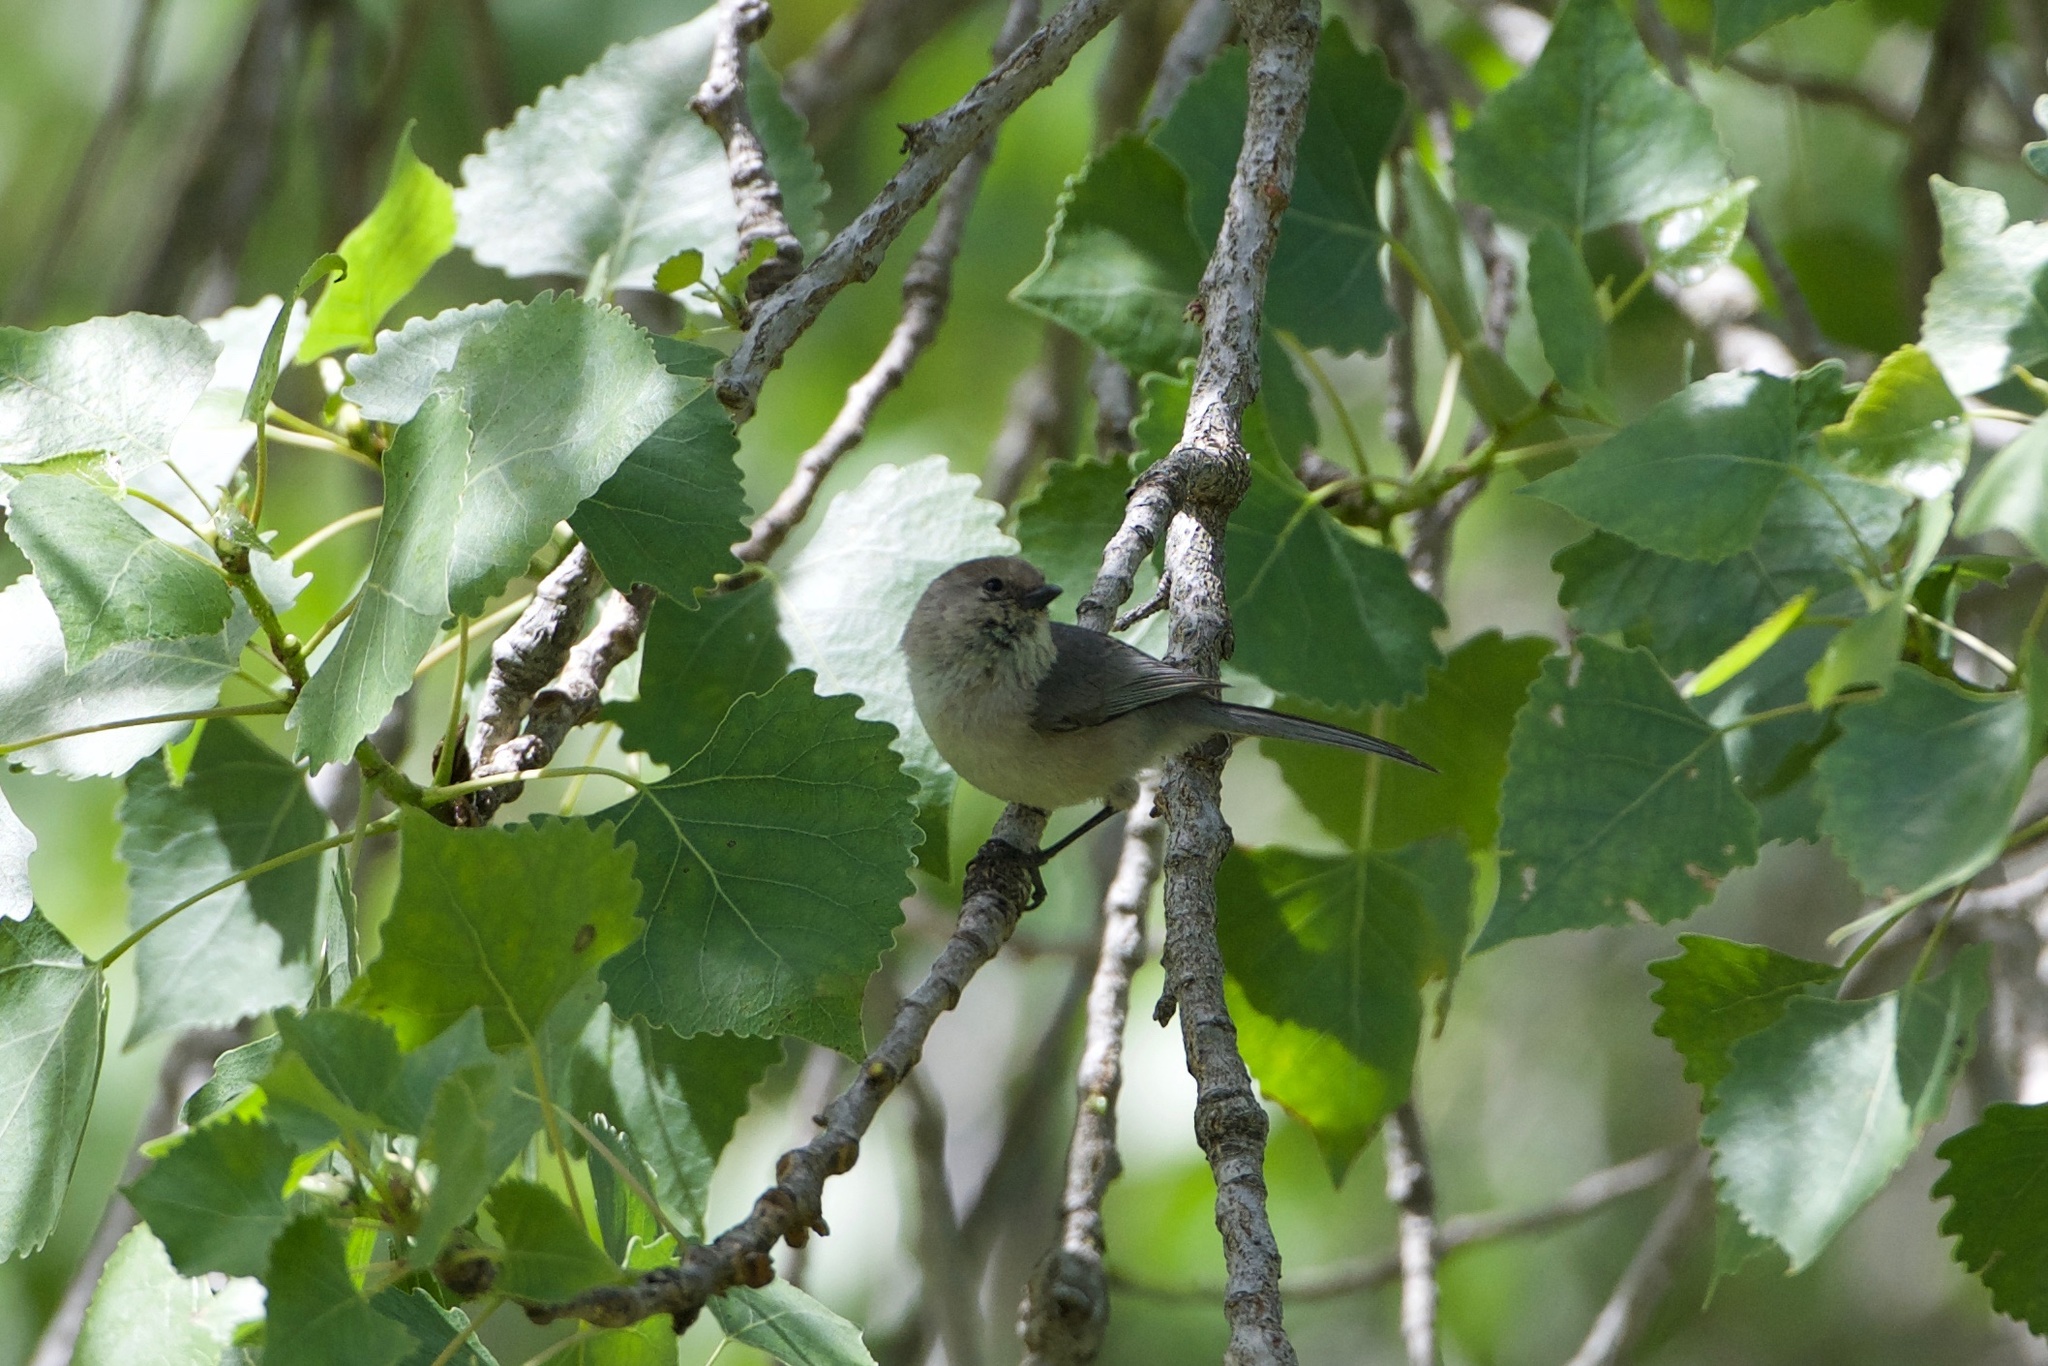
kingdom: Animalia
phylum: Chordata
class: Aves
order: Passeriformes
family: Aegithalidae
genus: Psaltriparus
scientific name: Psaltriparus minimus
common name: American bushtit
